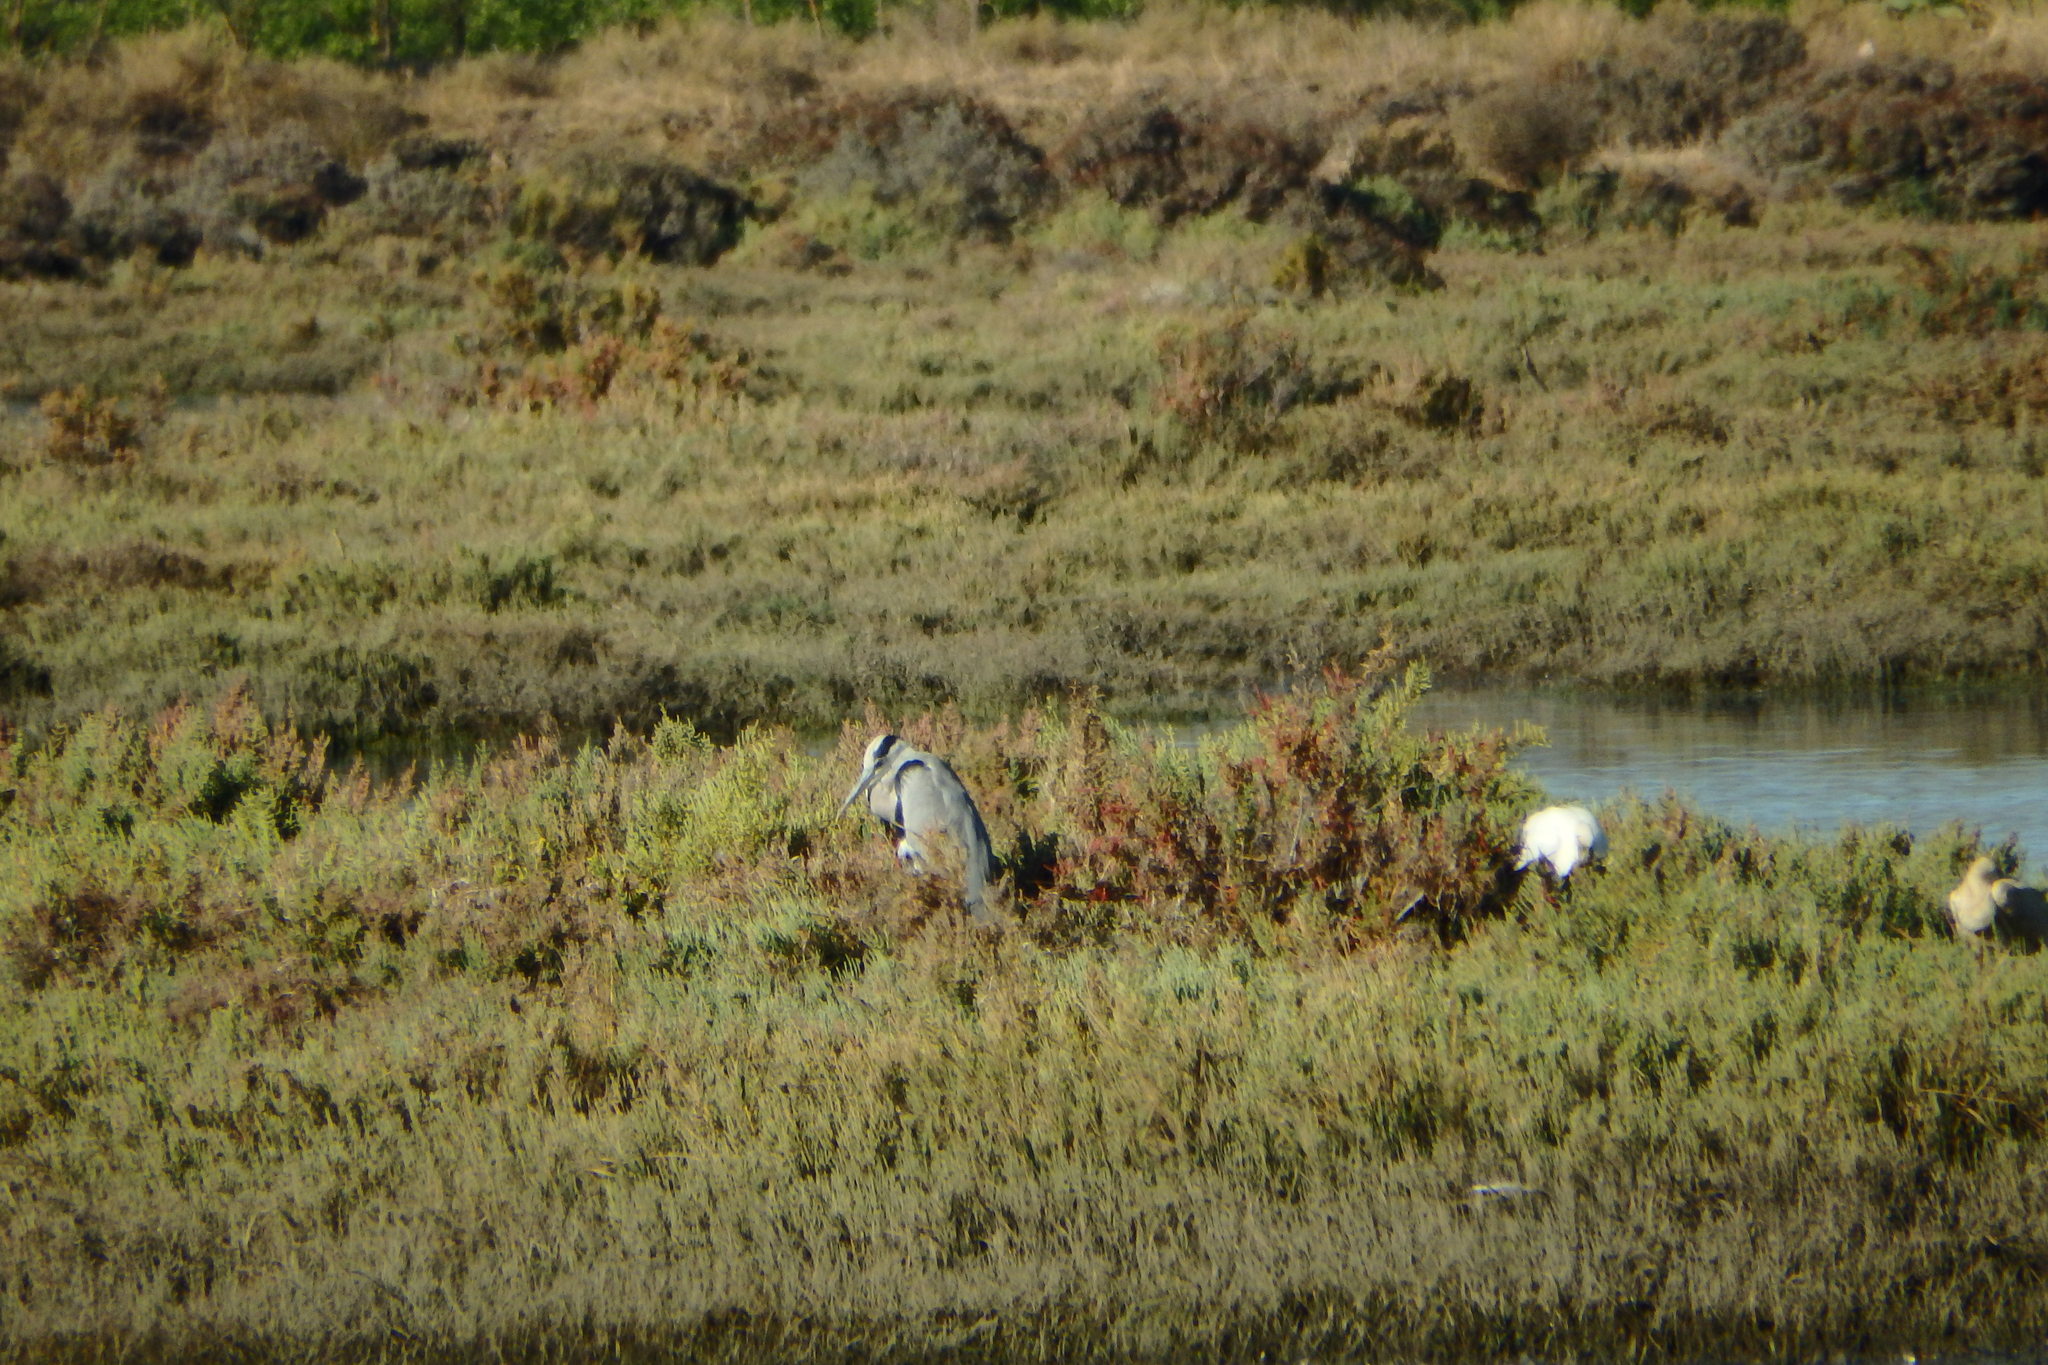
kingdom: Animalia
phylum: Chordata
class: Aves
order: Pelecaniformes
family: Ardeidae
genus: Ardea
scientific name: Ardea cinerea
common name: Grey heron
